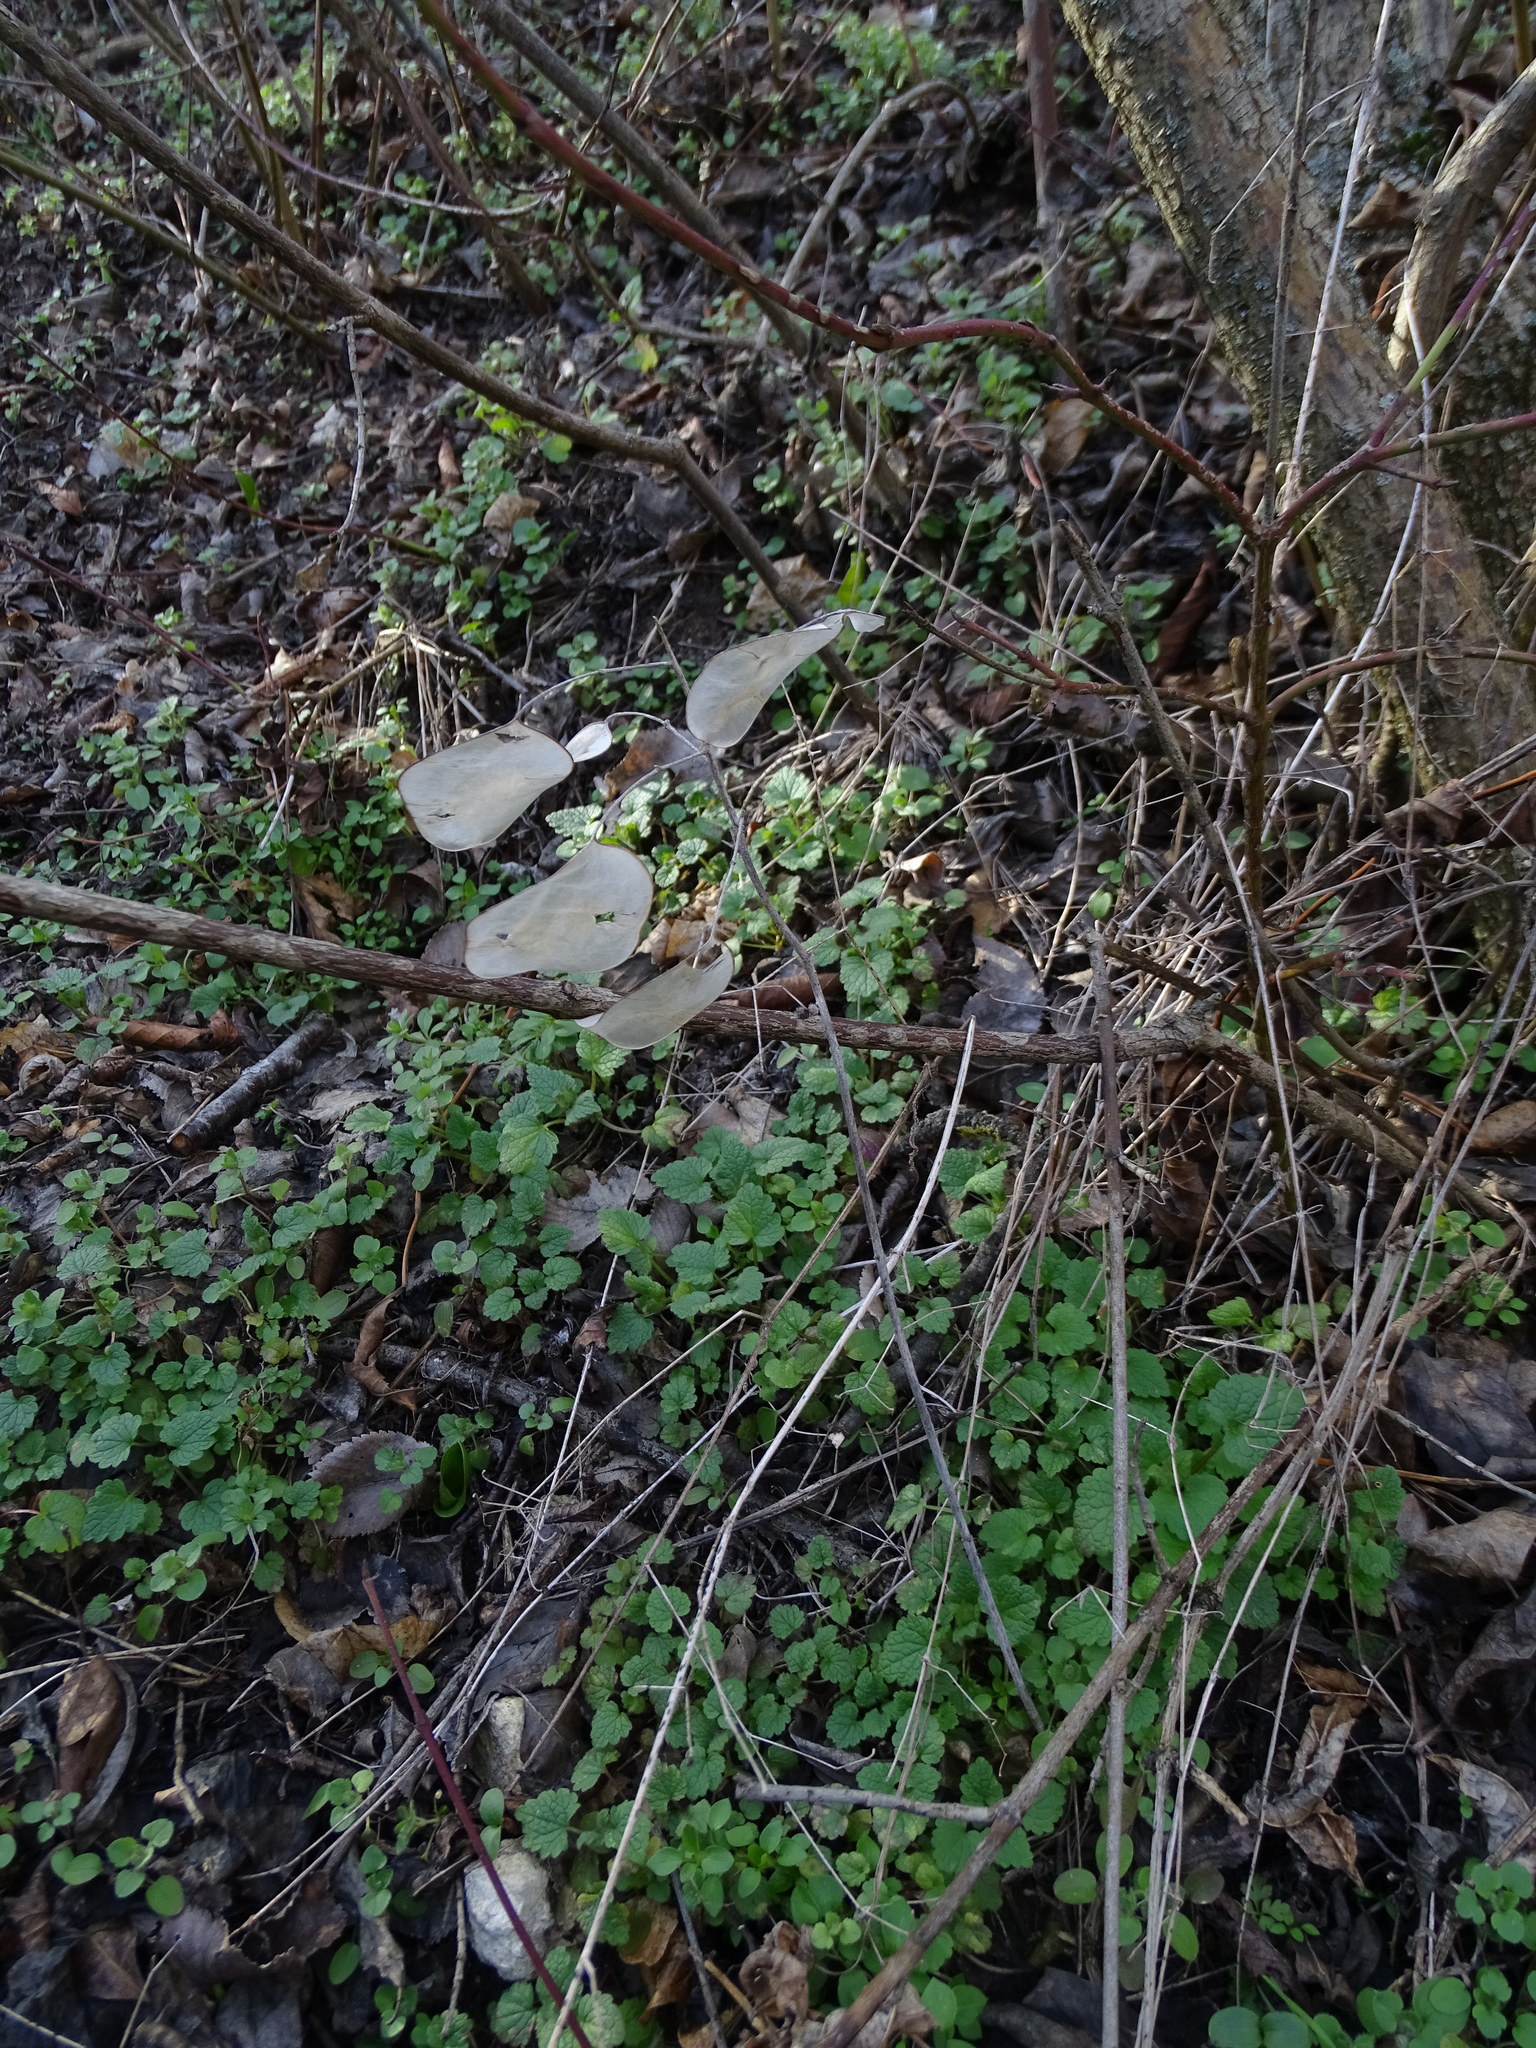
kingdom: Plantae
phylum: Tracheophyta
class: Magnoliopsida
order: Brassicales
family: Brassicaceae
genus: Lunaria
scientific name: Lunaria annua
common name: Honesty
